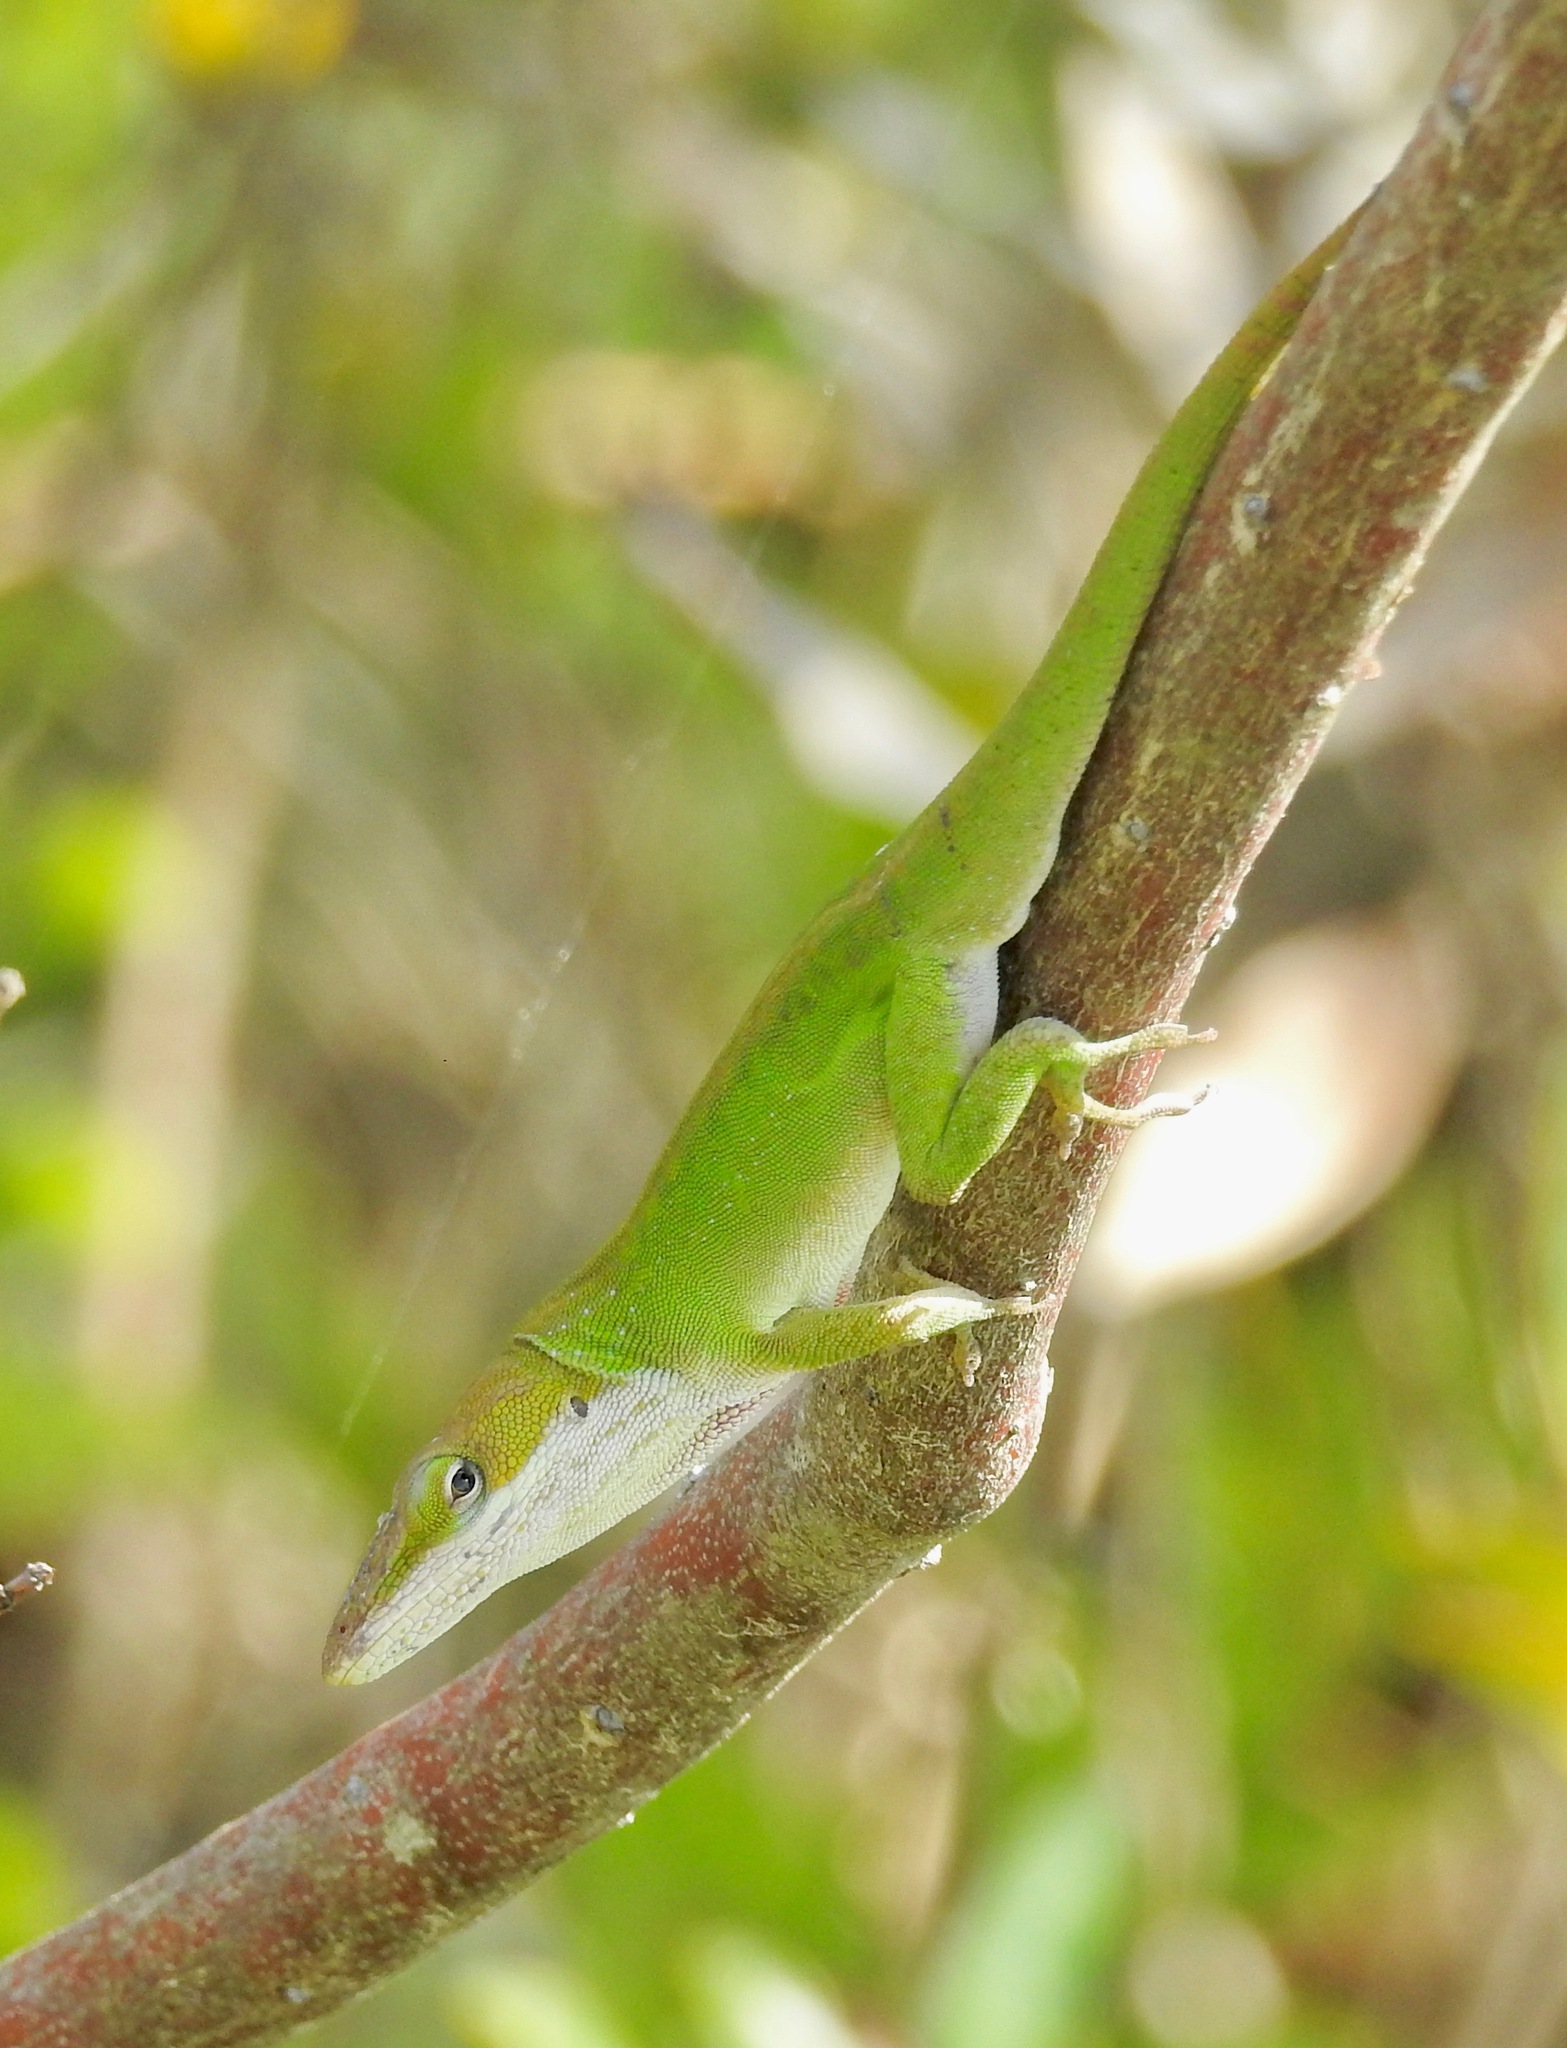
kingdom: Animalia
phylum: Chordata
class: Squamata
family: Dactyloidae
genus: Anolis
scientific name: Anolis carolinensis
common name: Green anole
